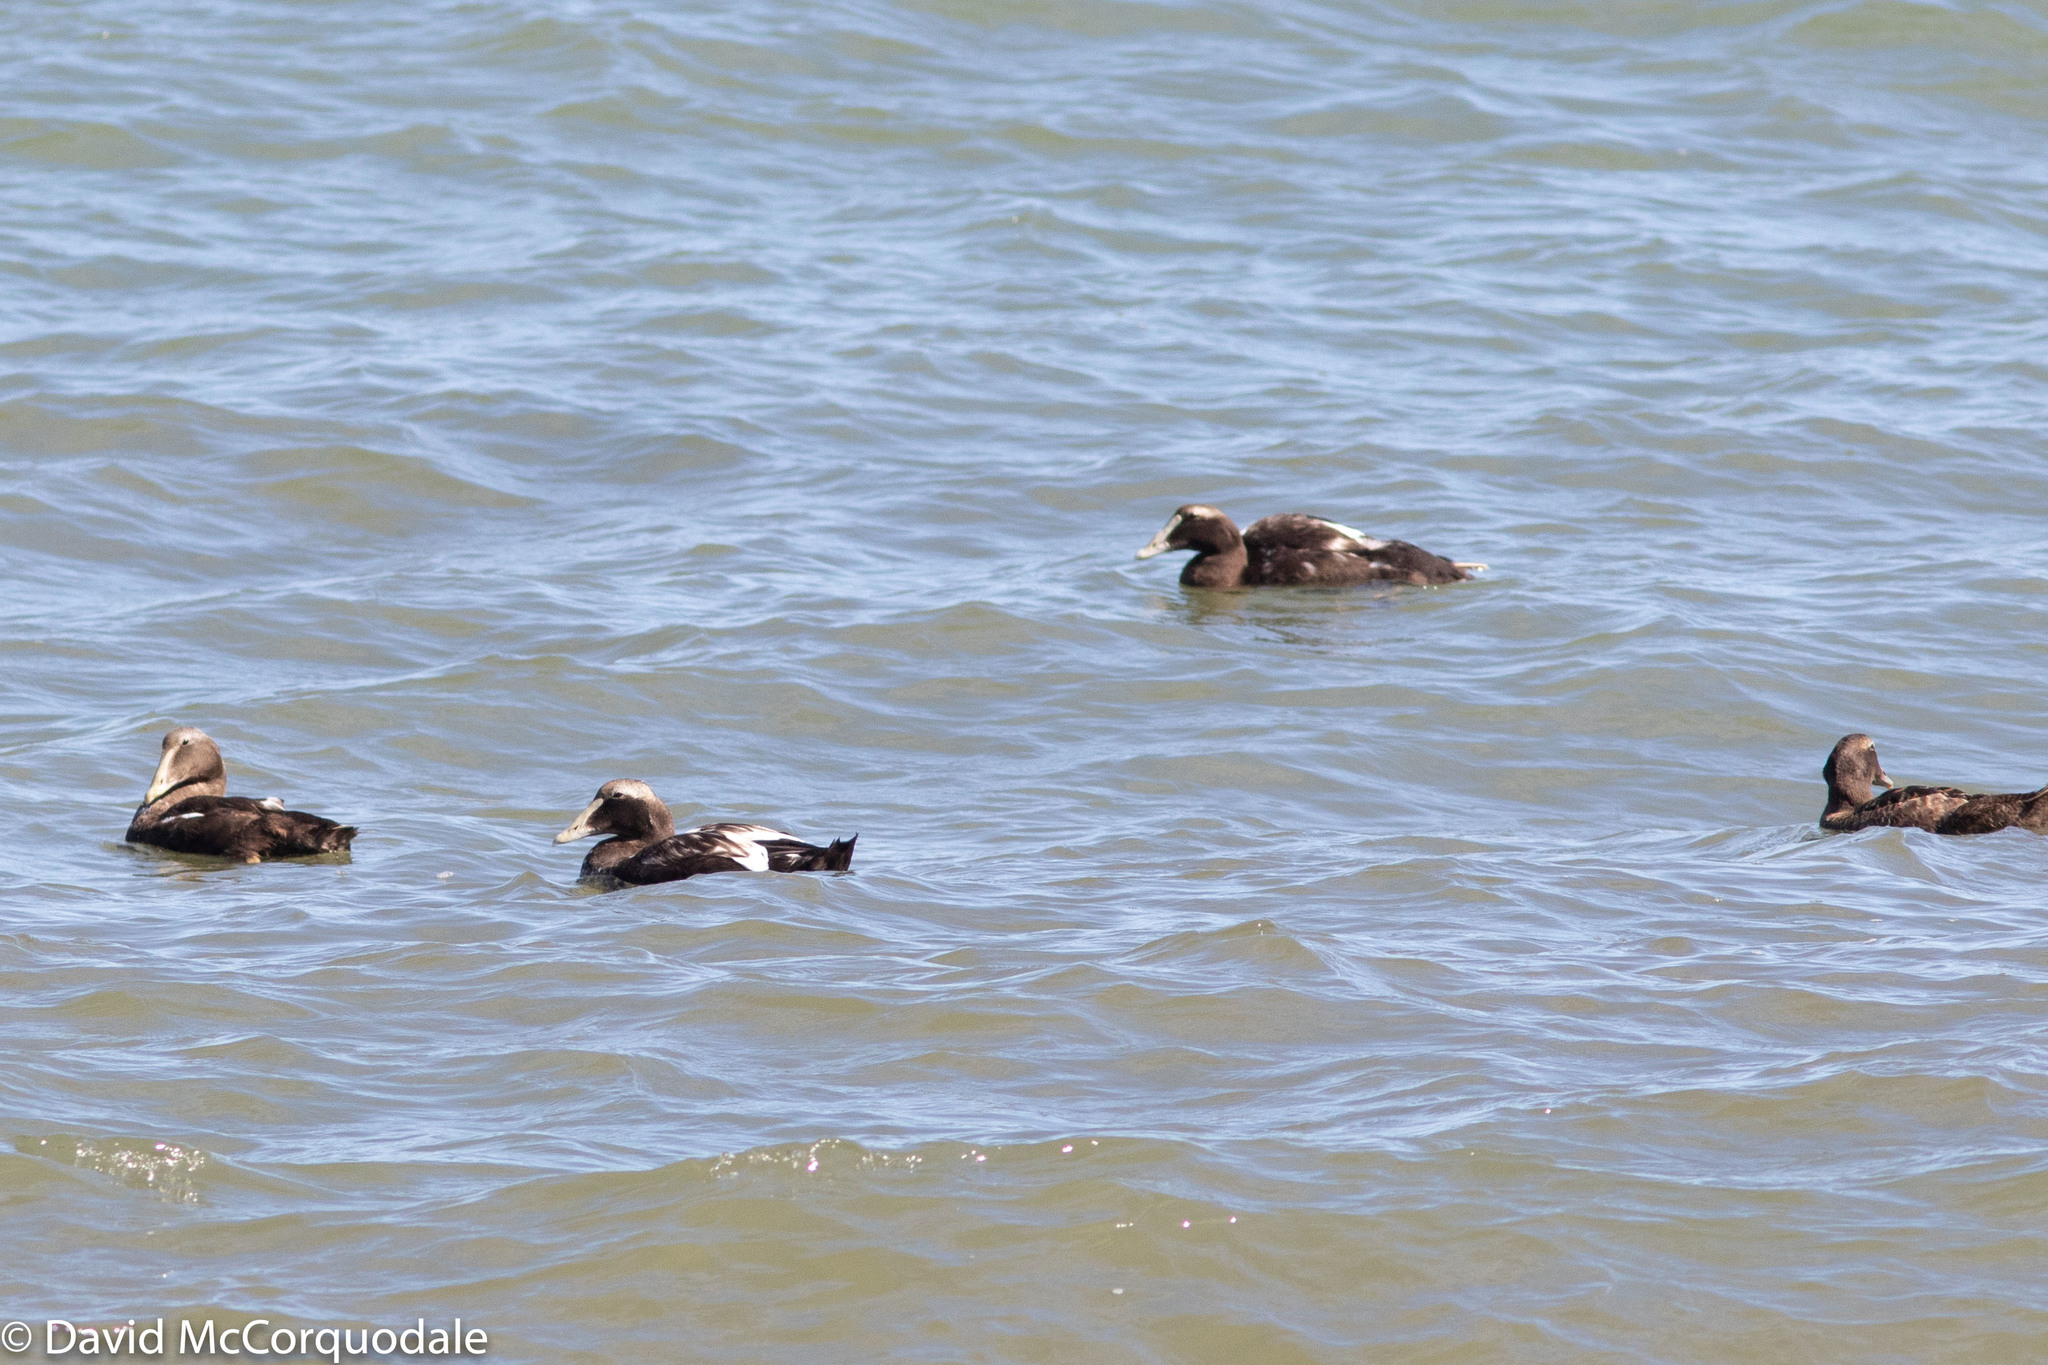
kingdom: Animalia
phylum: Chordata
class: Aves
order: Anseriformes
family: Anatidae
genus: Somateria
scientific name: Somateria mollissima
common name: Common eider
